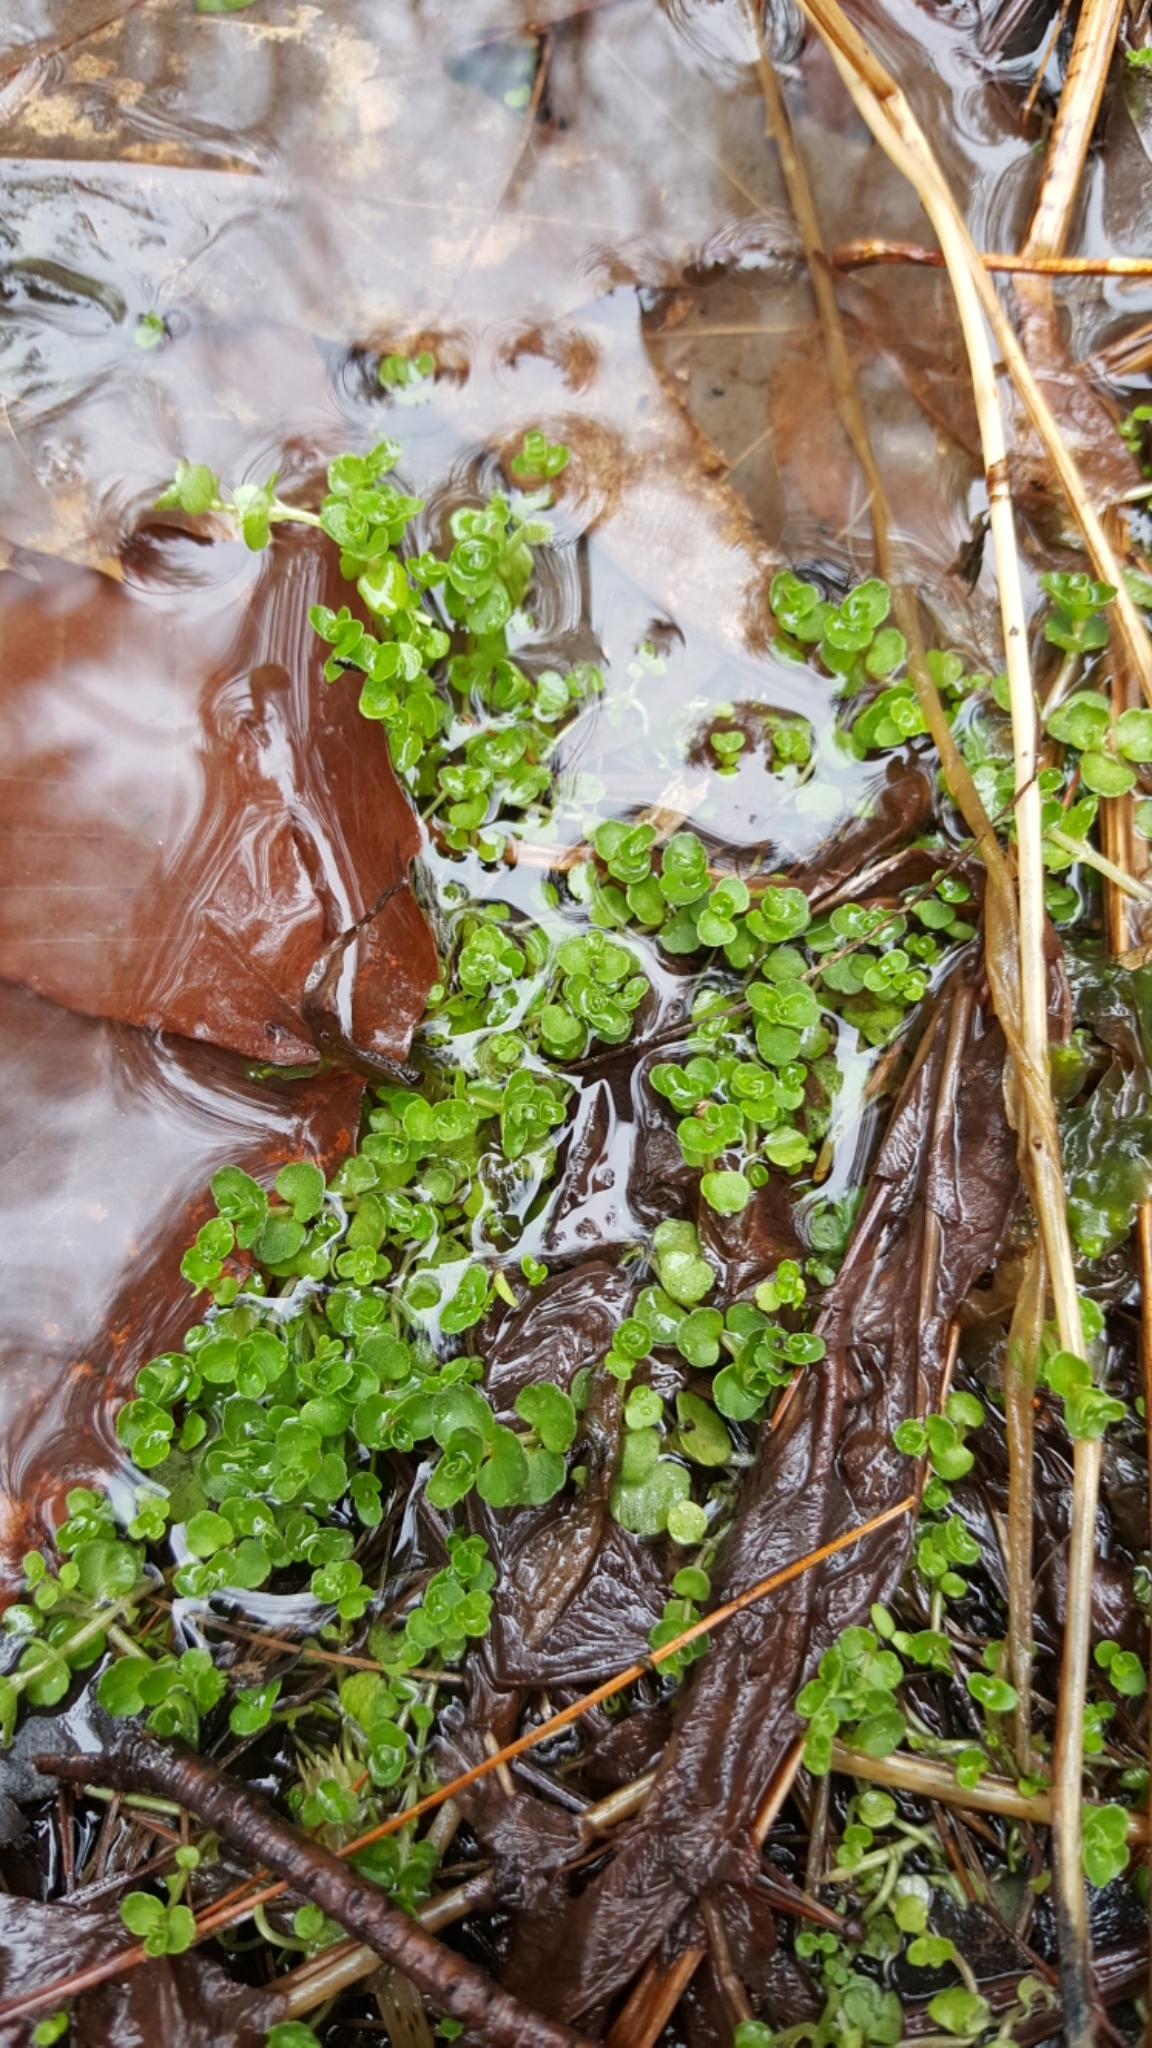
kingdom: Plantae
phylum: Tracheophyta
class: Magnoliopsida
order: Saxifragales
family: Saxifragaceae
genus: Chrysosplenium
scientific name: Chrysosplenium americanum
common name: American golden-saxifrage
